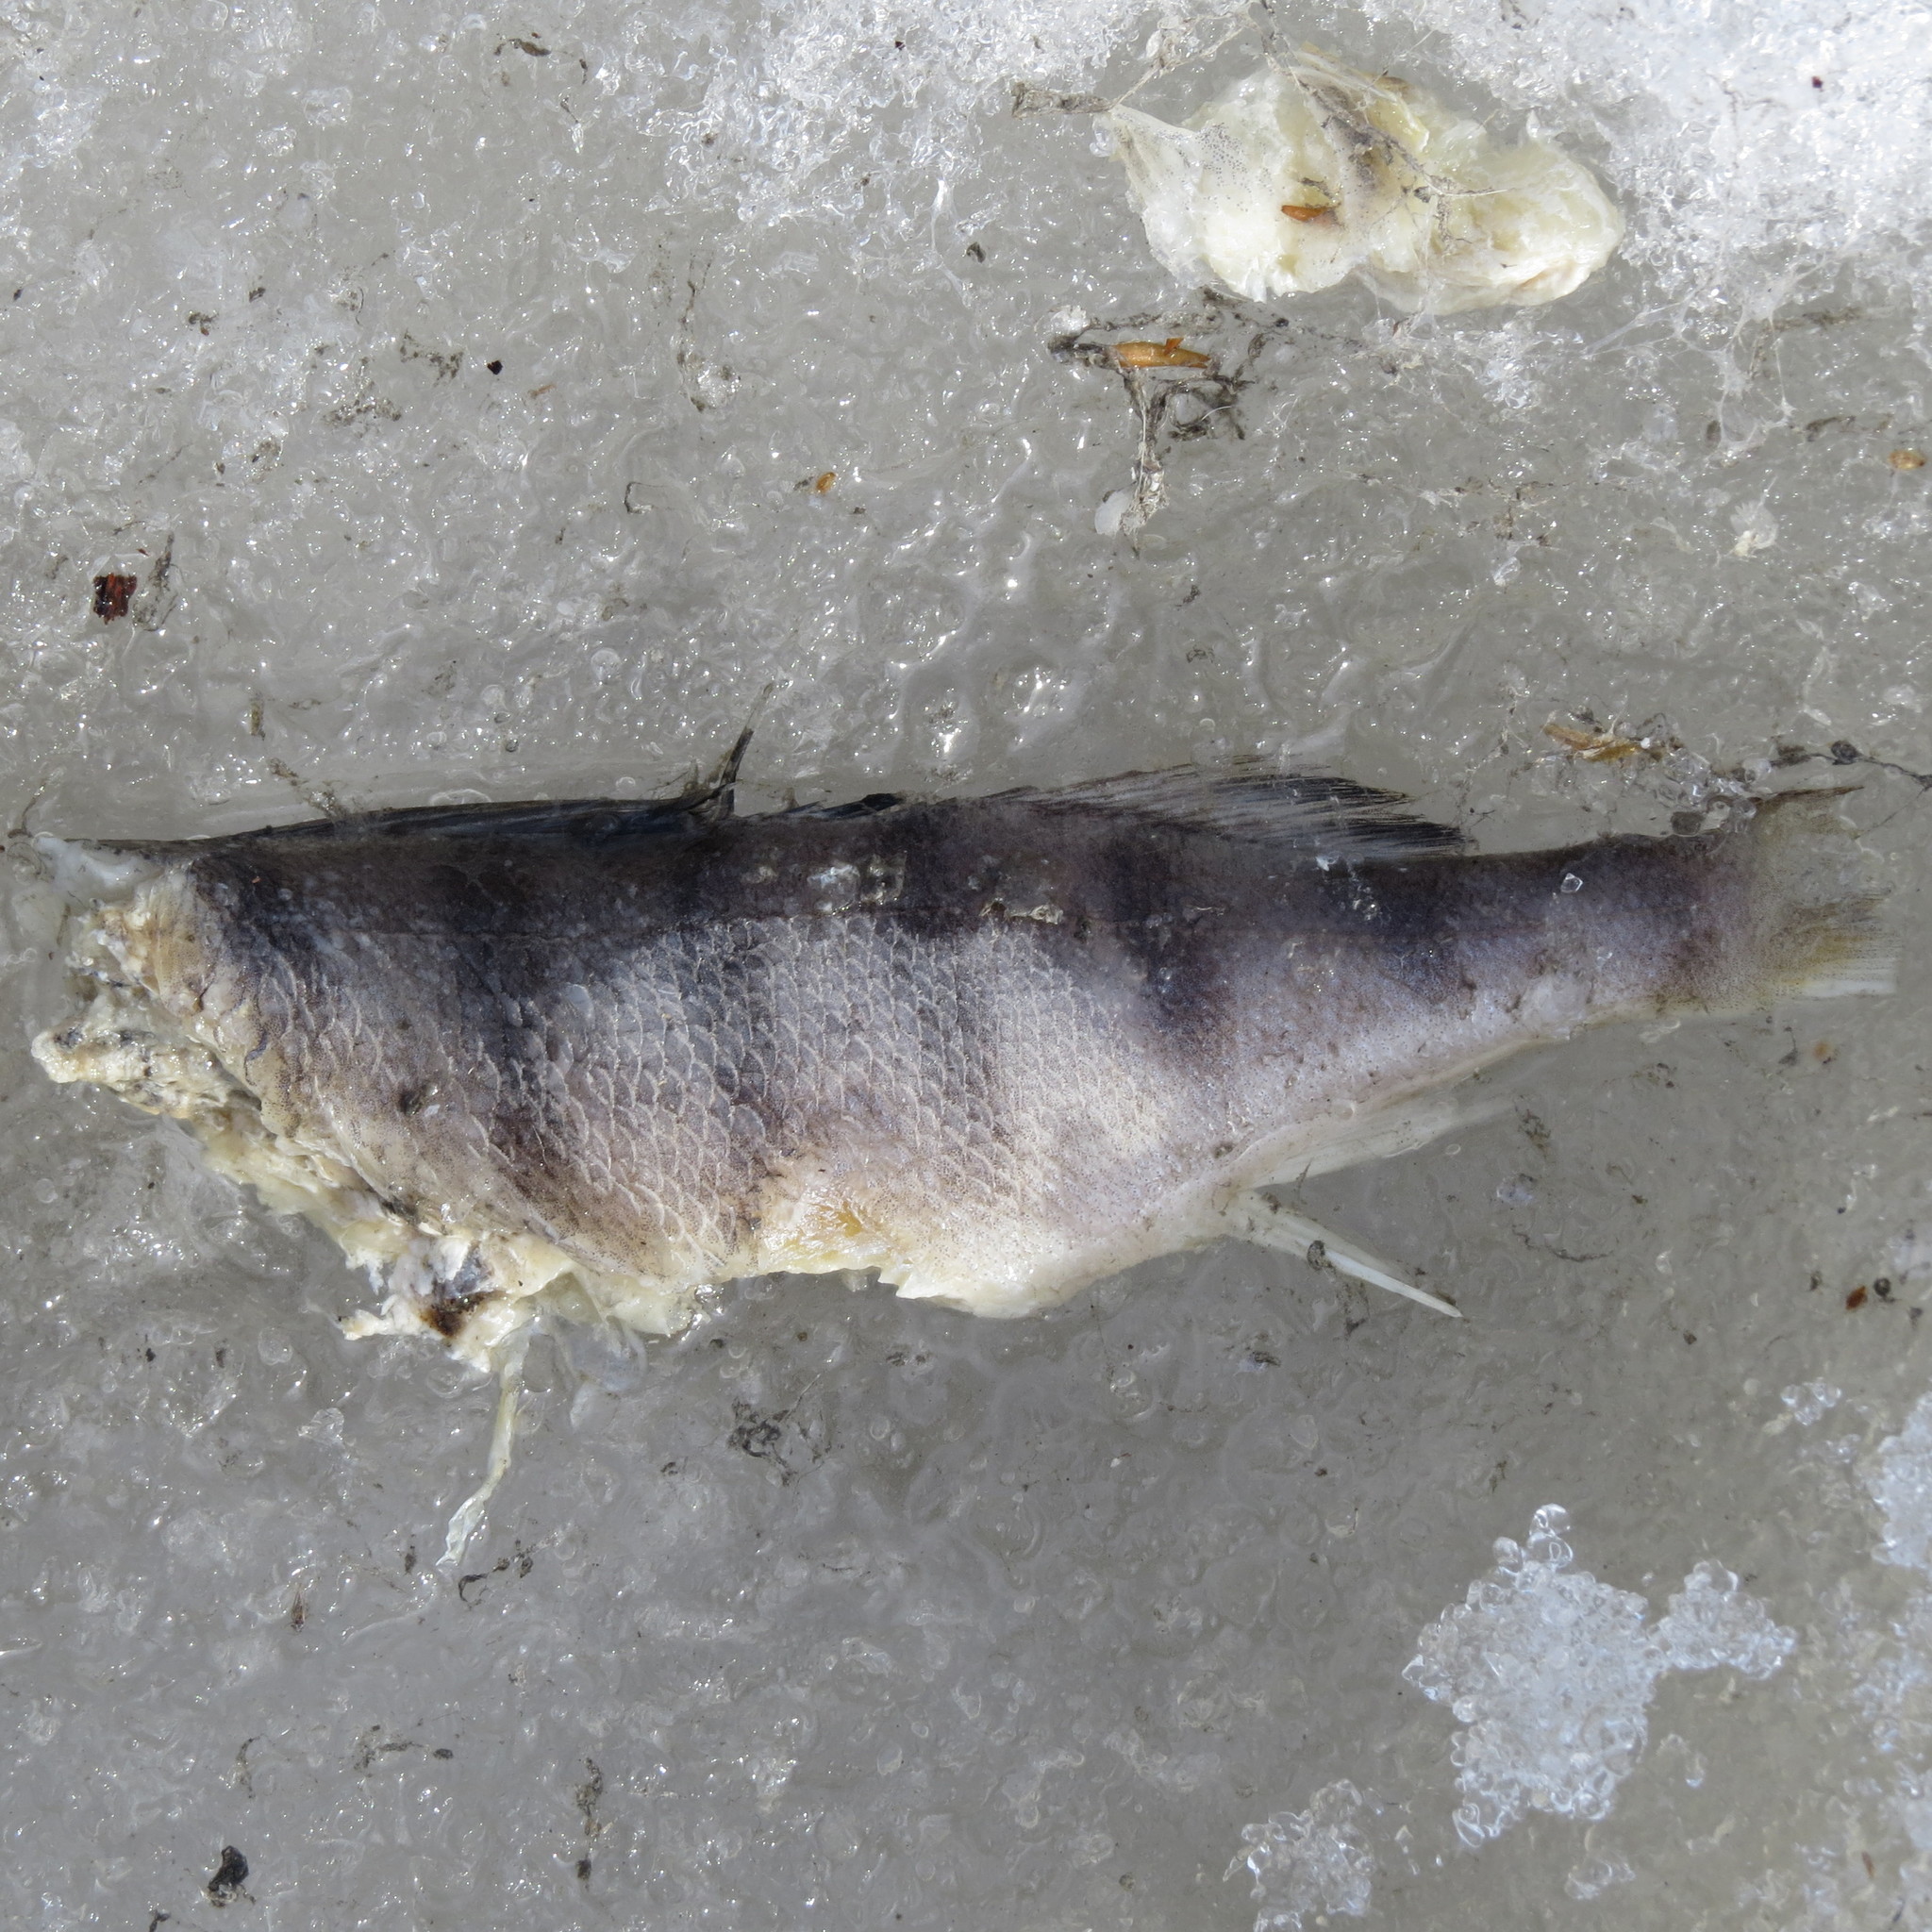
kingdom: Animalia
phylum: Chordata
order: Perciformes
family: Percidae
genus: Perca
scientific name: Perca fluviatilis
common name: Perch
